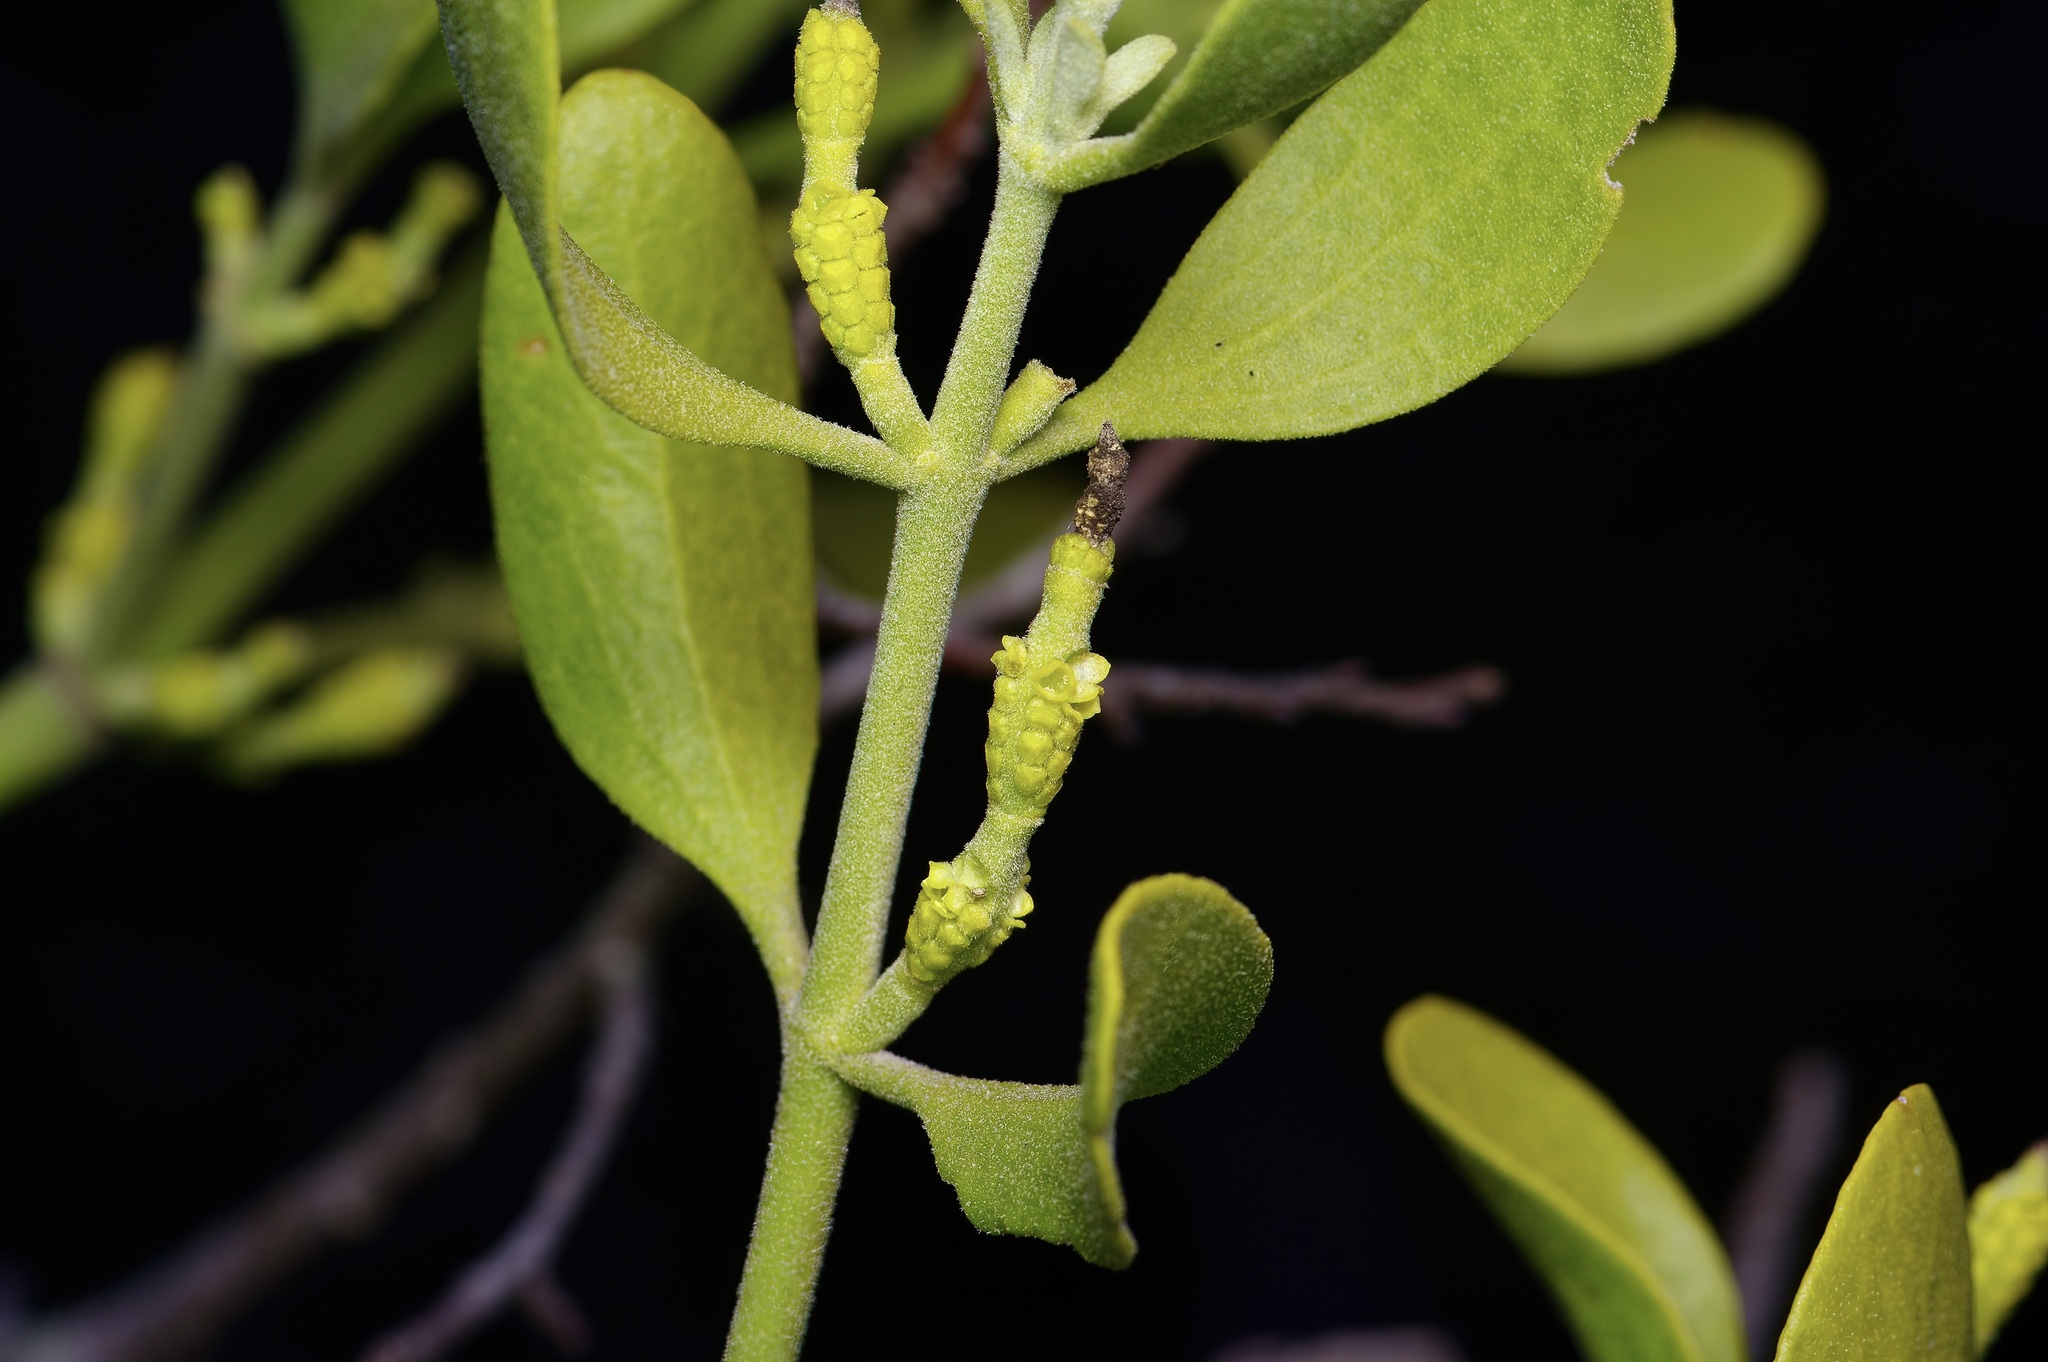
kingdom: Plantae
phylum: Tracheophyta
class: Magnoliopsida
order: Santalales
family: Viscaceae
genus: Phoradendron
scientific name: Phoradendron leucarpum
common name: Pacific mistletoe
